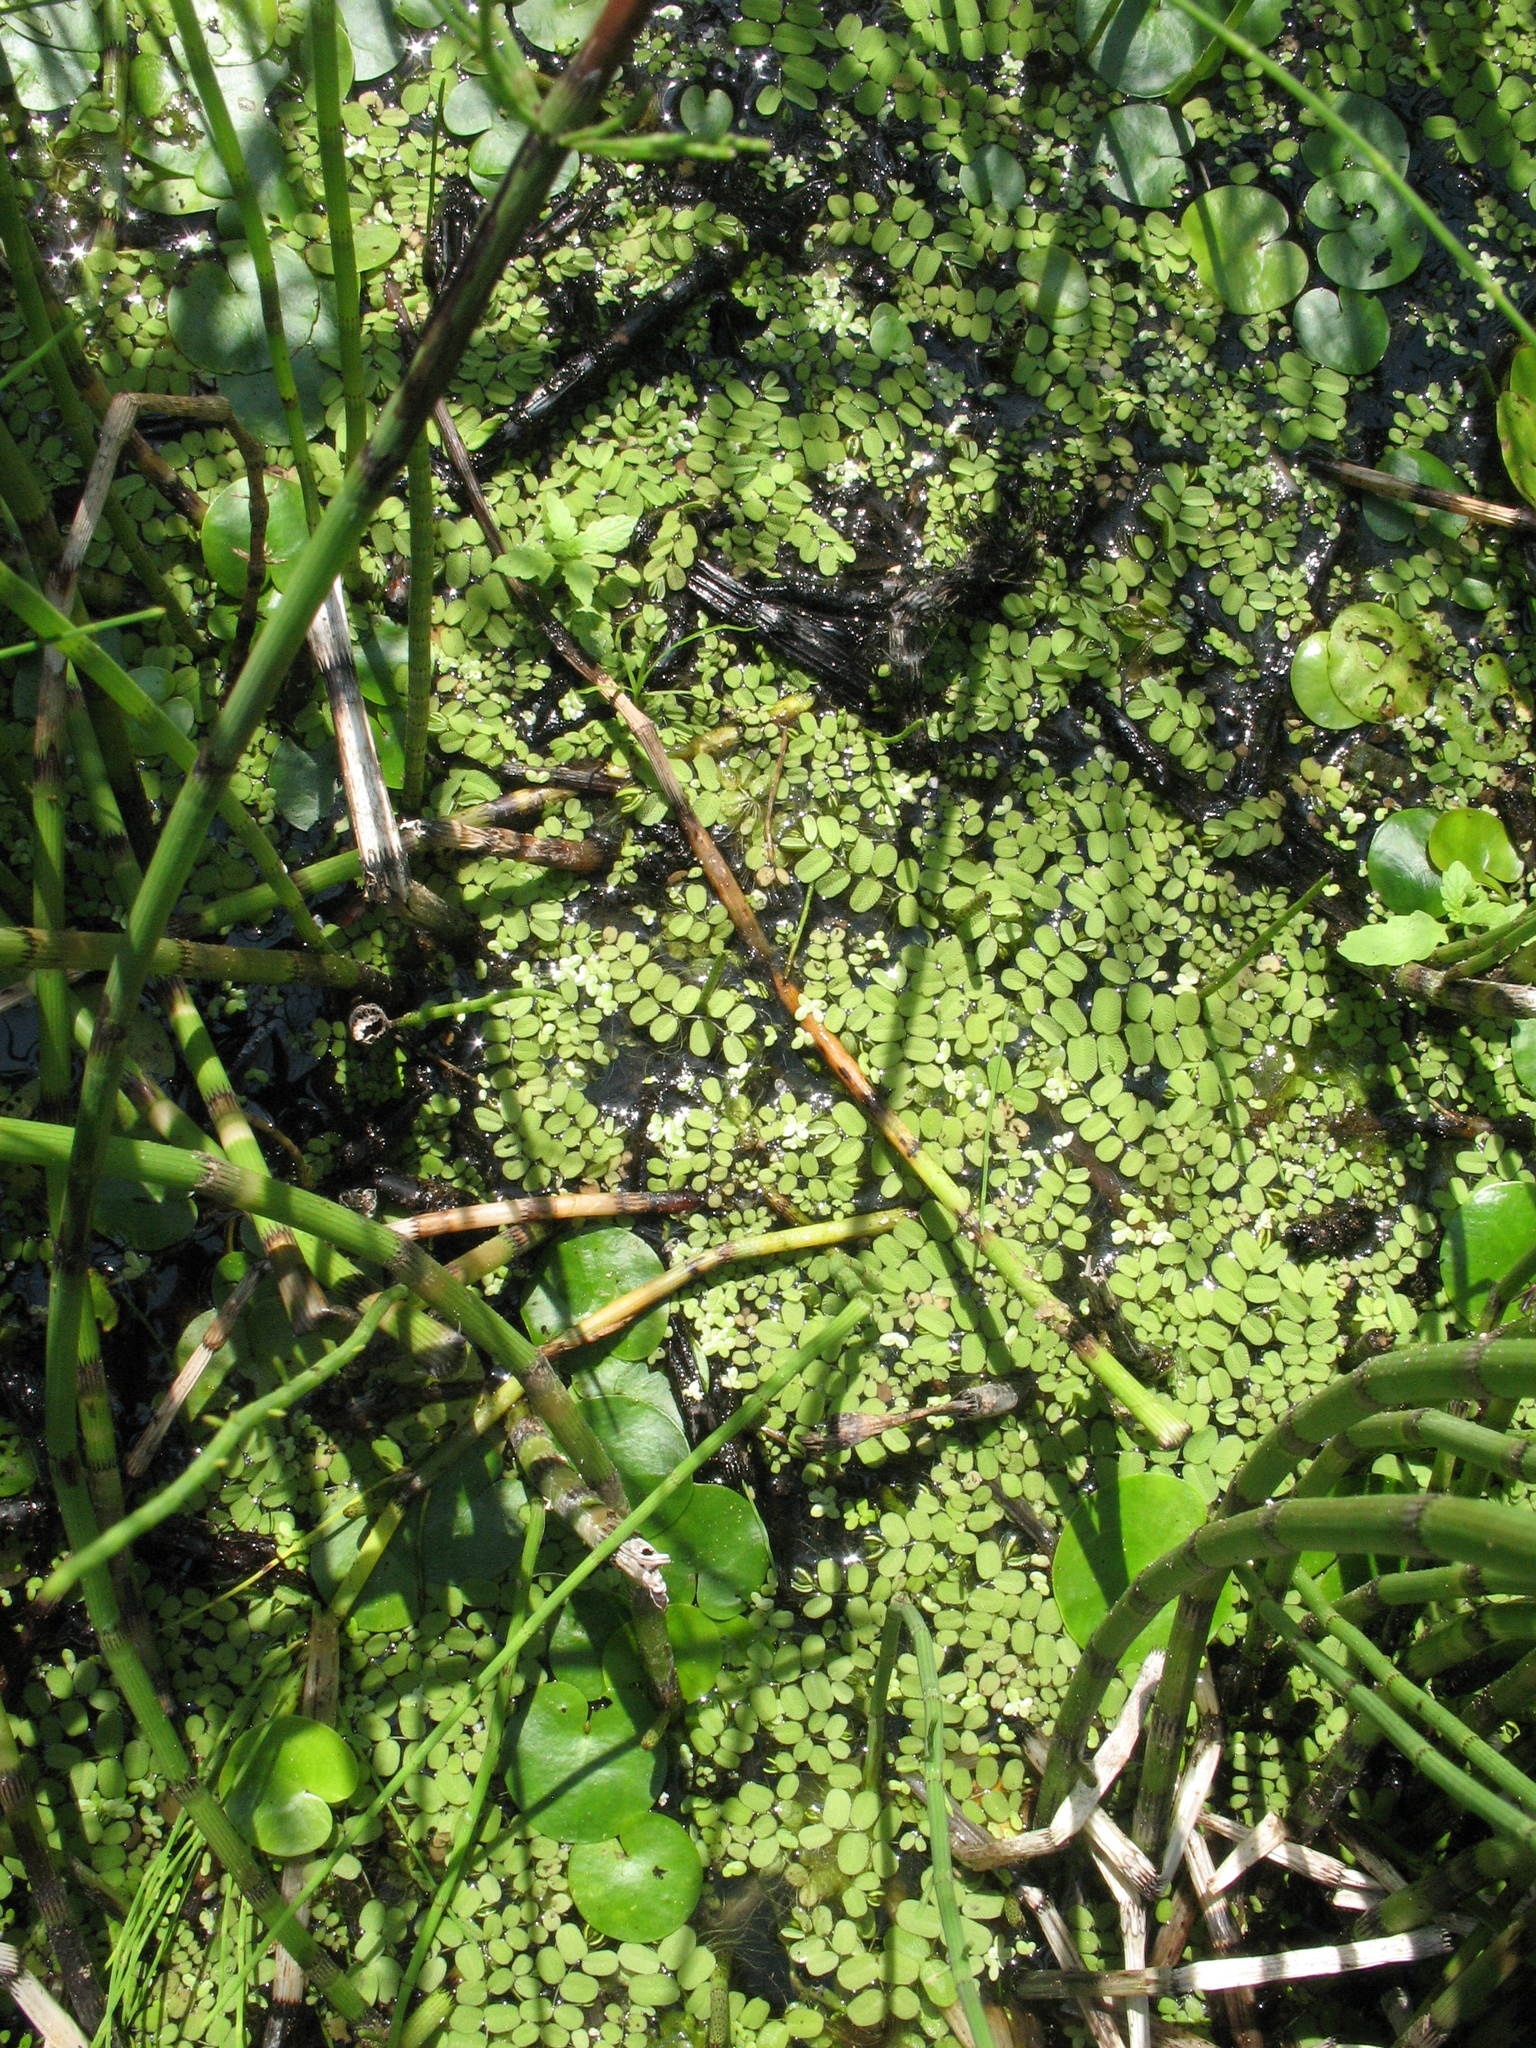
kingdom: Plantae
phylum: Tracheophyta
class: Polypodiopsida
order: Salviniales
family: Salviniaceae
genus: Salvinia
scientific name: Salvinia natans
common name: Floating fern
